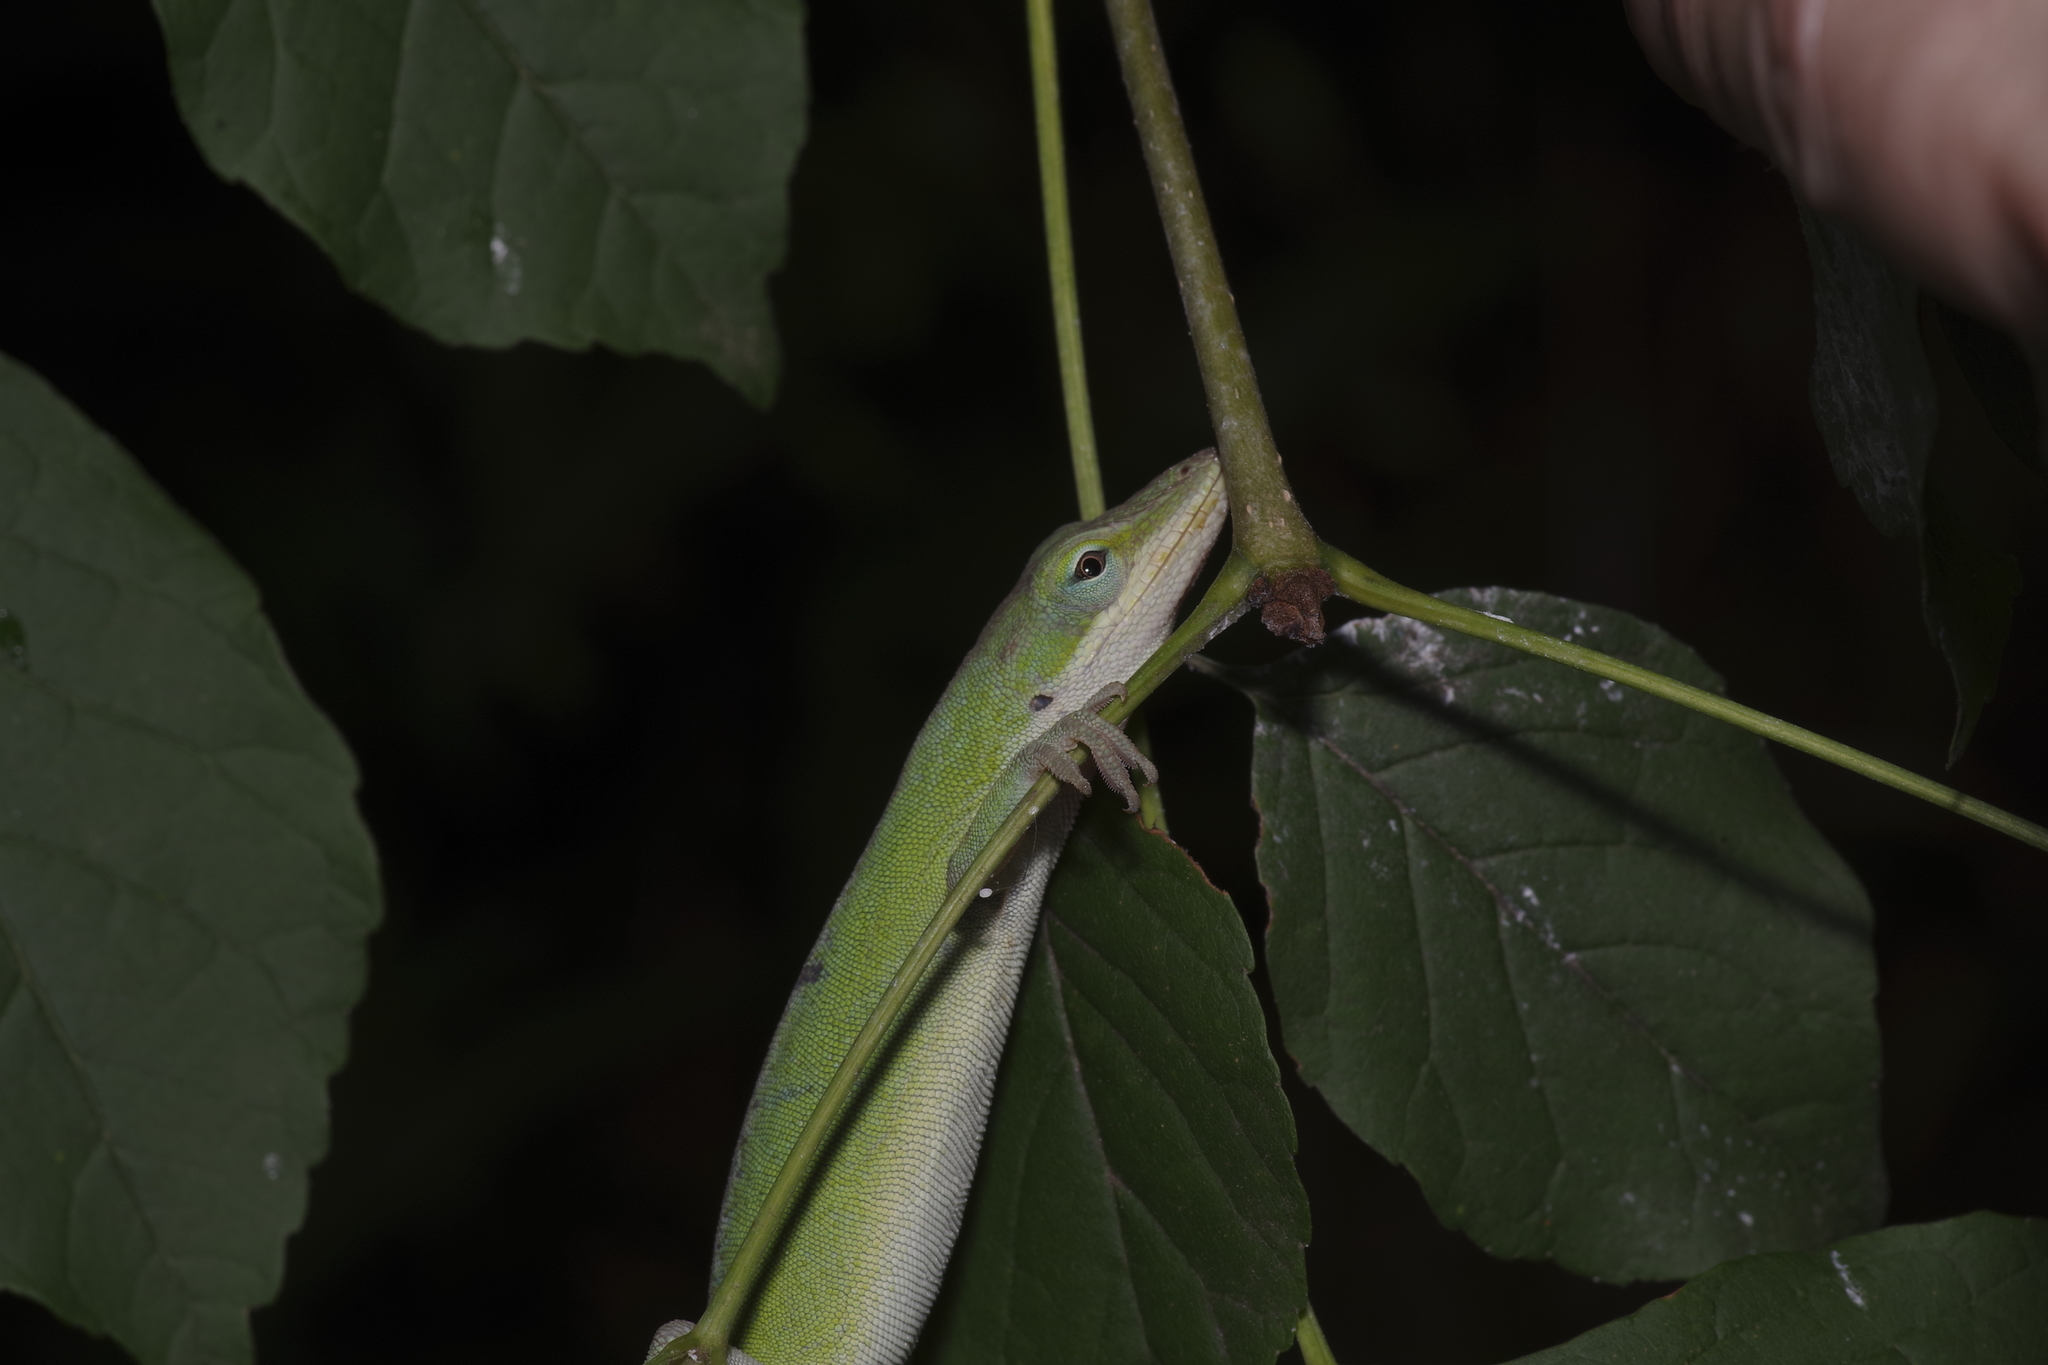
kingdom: Animalia
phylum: Chordata
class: Squamata
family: Dactyloidae
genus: Anolis
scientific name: Anolis carolinensis
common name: Green anole
